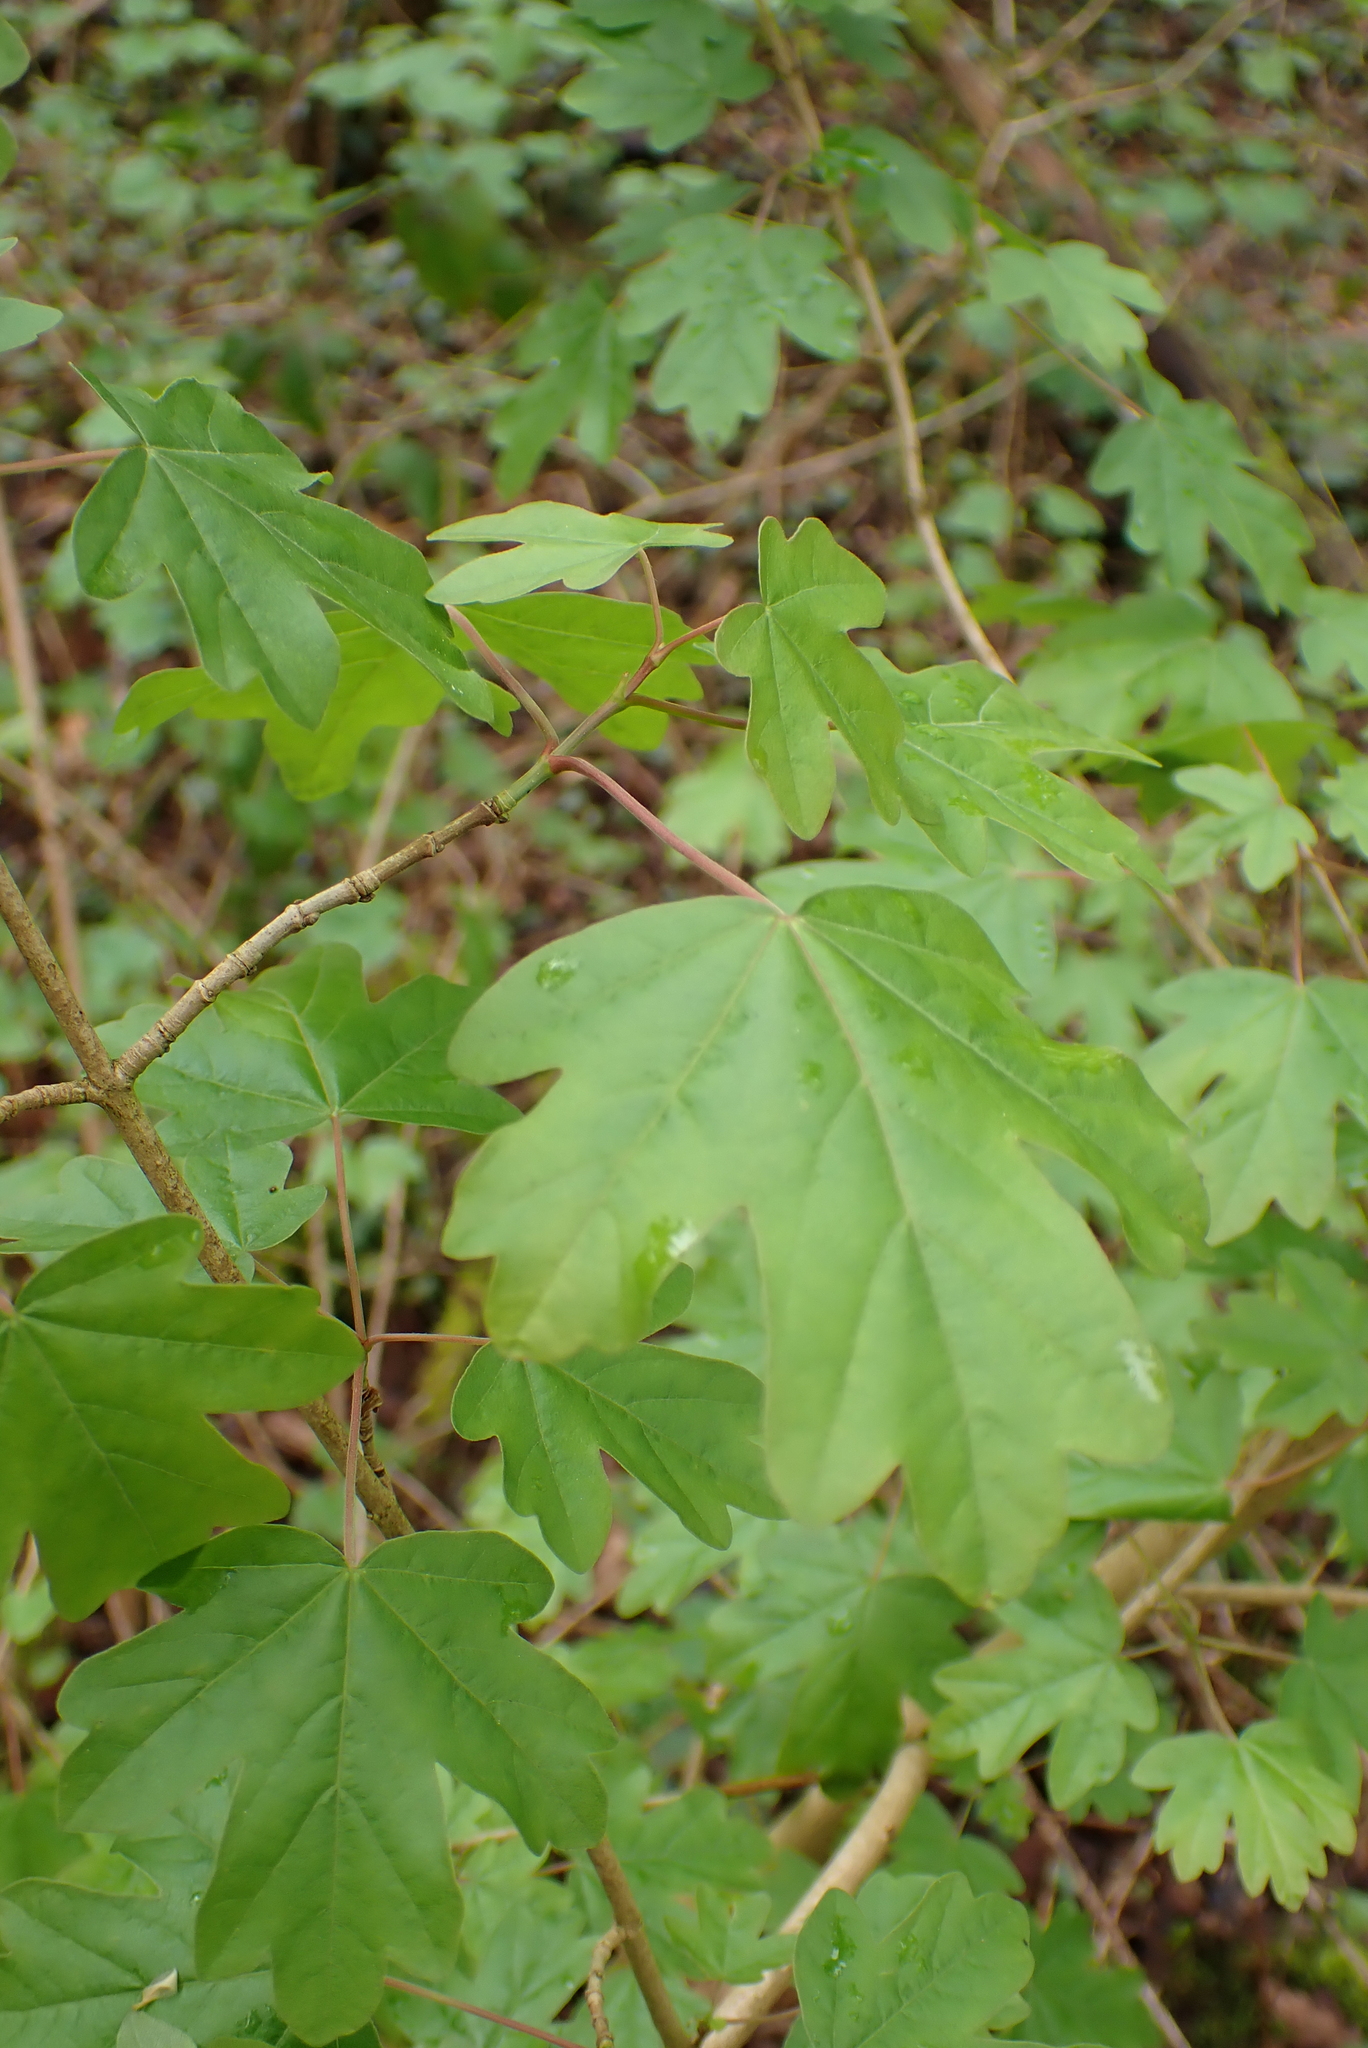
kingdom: Plantae
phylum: Tracheophyta
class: Magnoliopsida
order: Sapindales
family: Sapindaceae
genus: Acer
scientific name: Acer campestre
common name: Field maple
